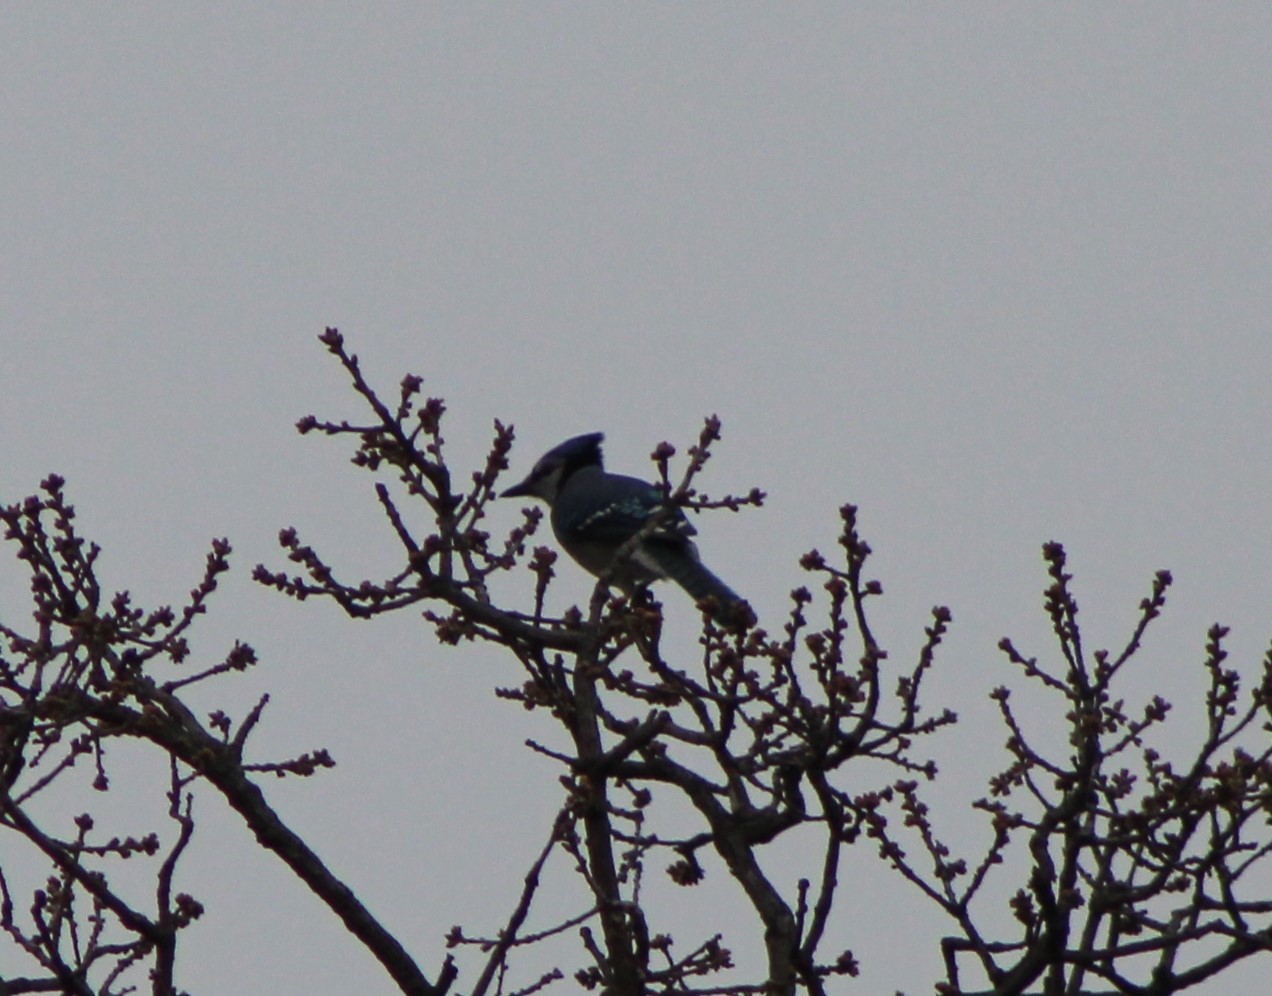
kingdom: Animalia
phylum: Chordata
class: Aves
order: Passeriformes
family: Corvidae
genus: Cyanocitta
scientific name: Cyanocitta cristata
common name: Blue jay
